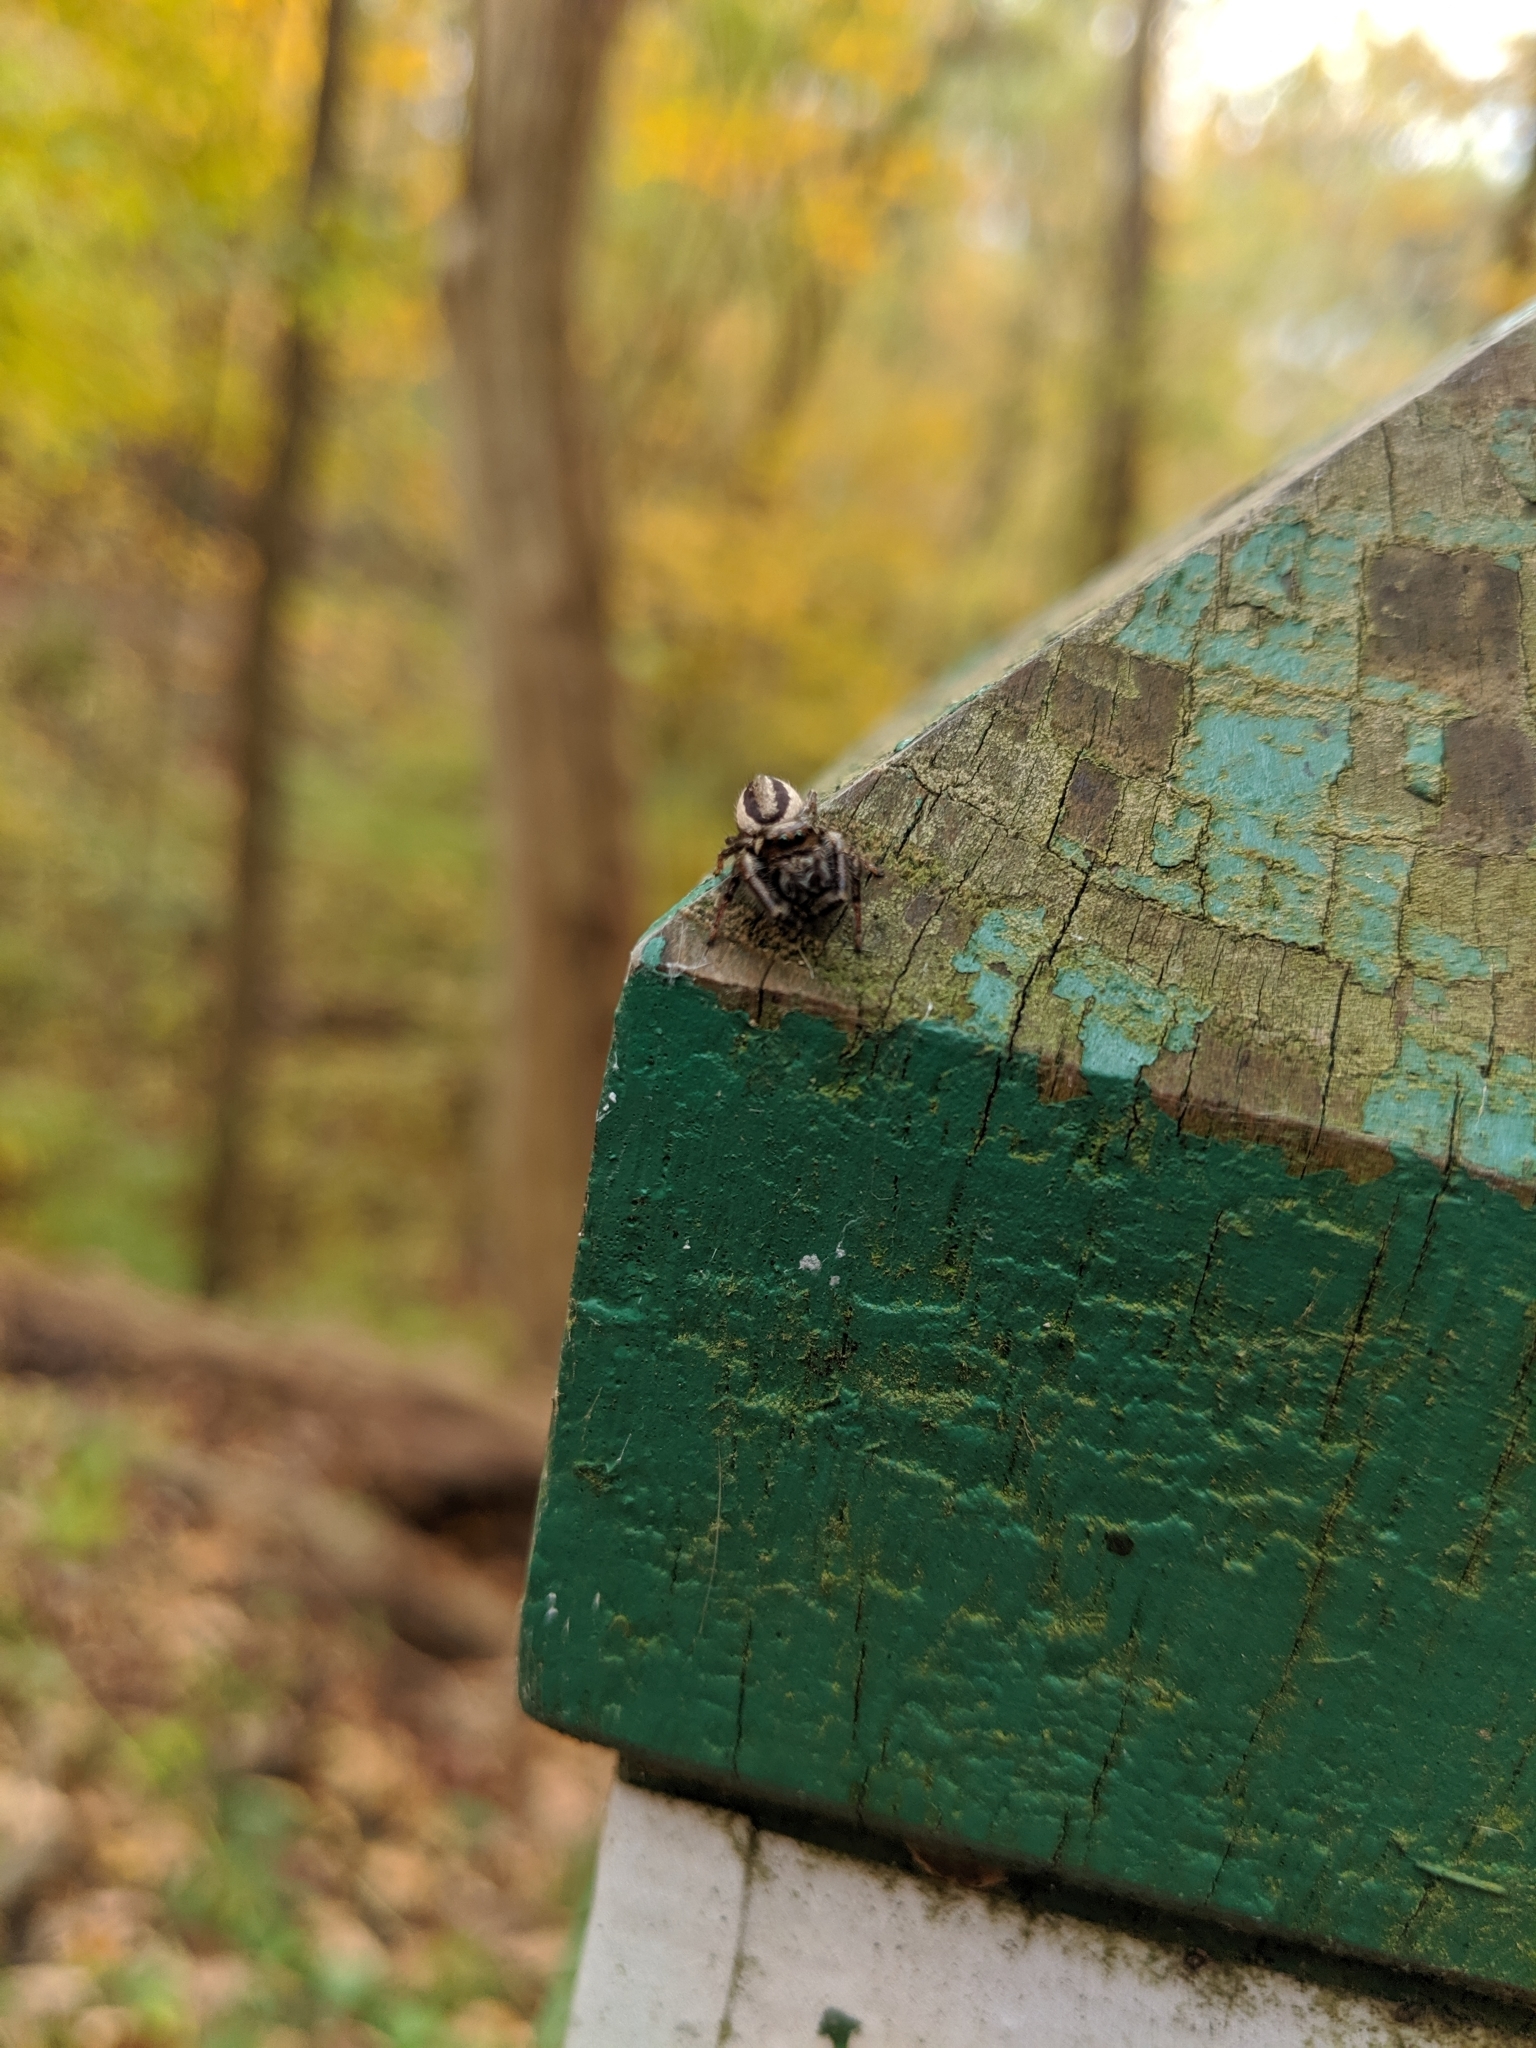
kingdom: Animalia
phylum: Arthropoda
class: Arachnida
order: Araneae
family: Salticidae
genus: Eris
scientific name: Eris militaris
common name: Bronze jumper
